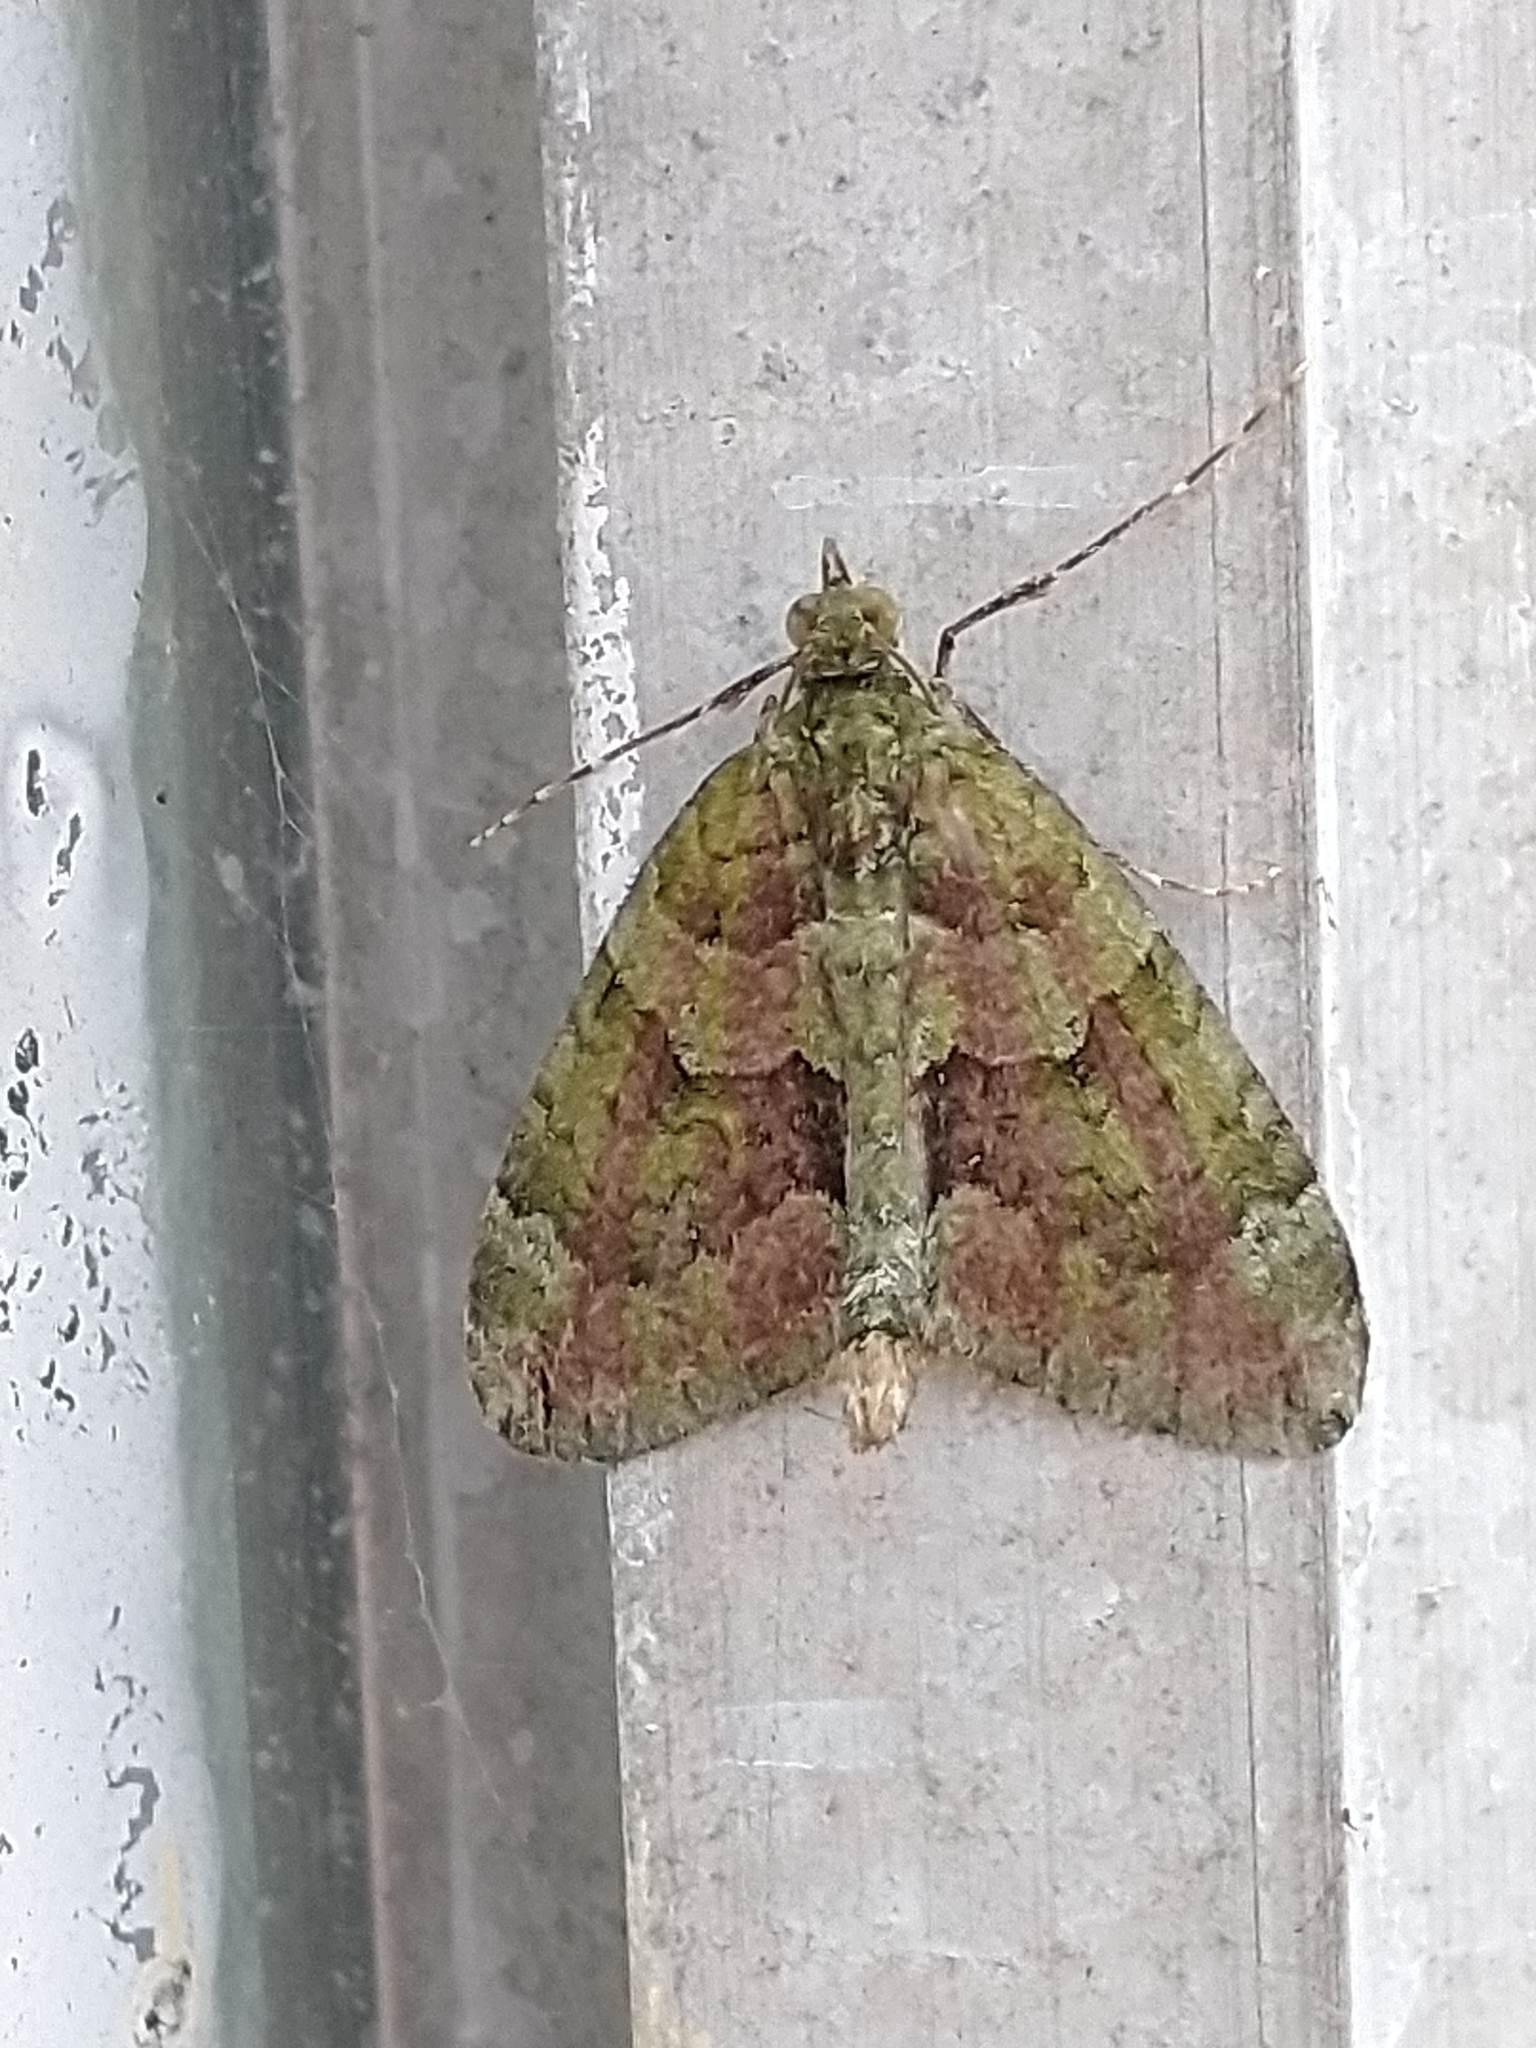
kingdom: Animalia
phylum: Arthropoda
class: Insecta
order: Lepidoptera
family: Geometridae
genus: Chloroclysta
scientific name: Chloroclysta siterata
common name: Red-green carpet
